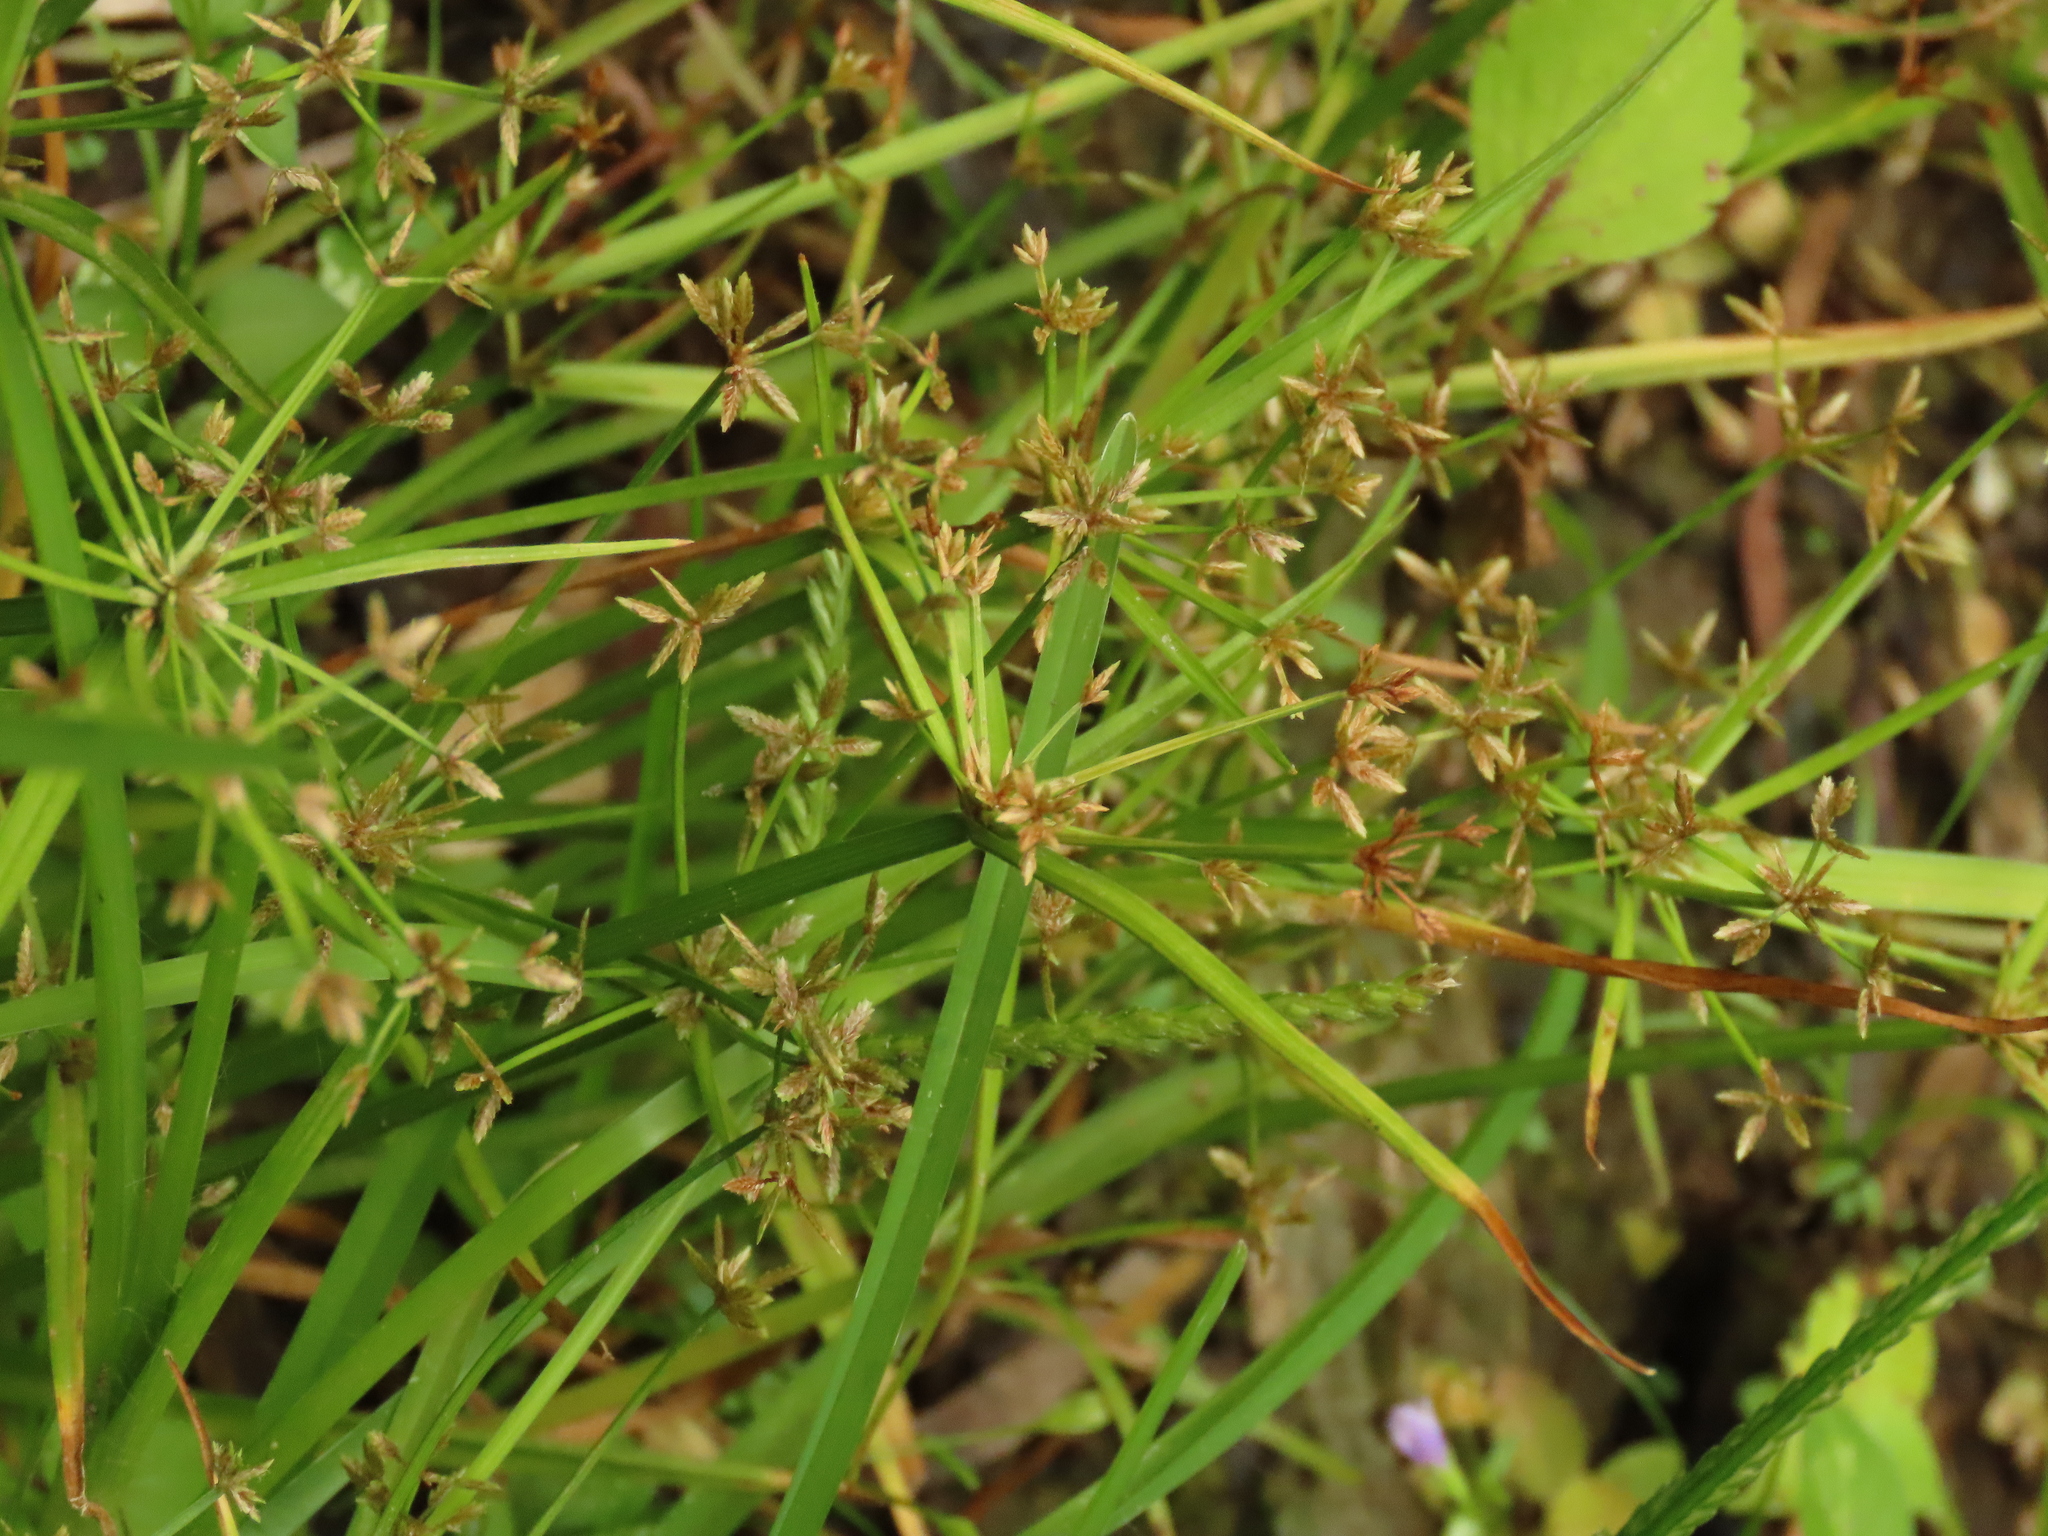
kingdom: Plantae
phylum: Tracheophyta
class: Liliopsida
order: Poales
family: Cyperaceae
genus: Cyperus
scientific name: Cyperus haspan
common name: Haspan flatsedge
